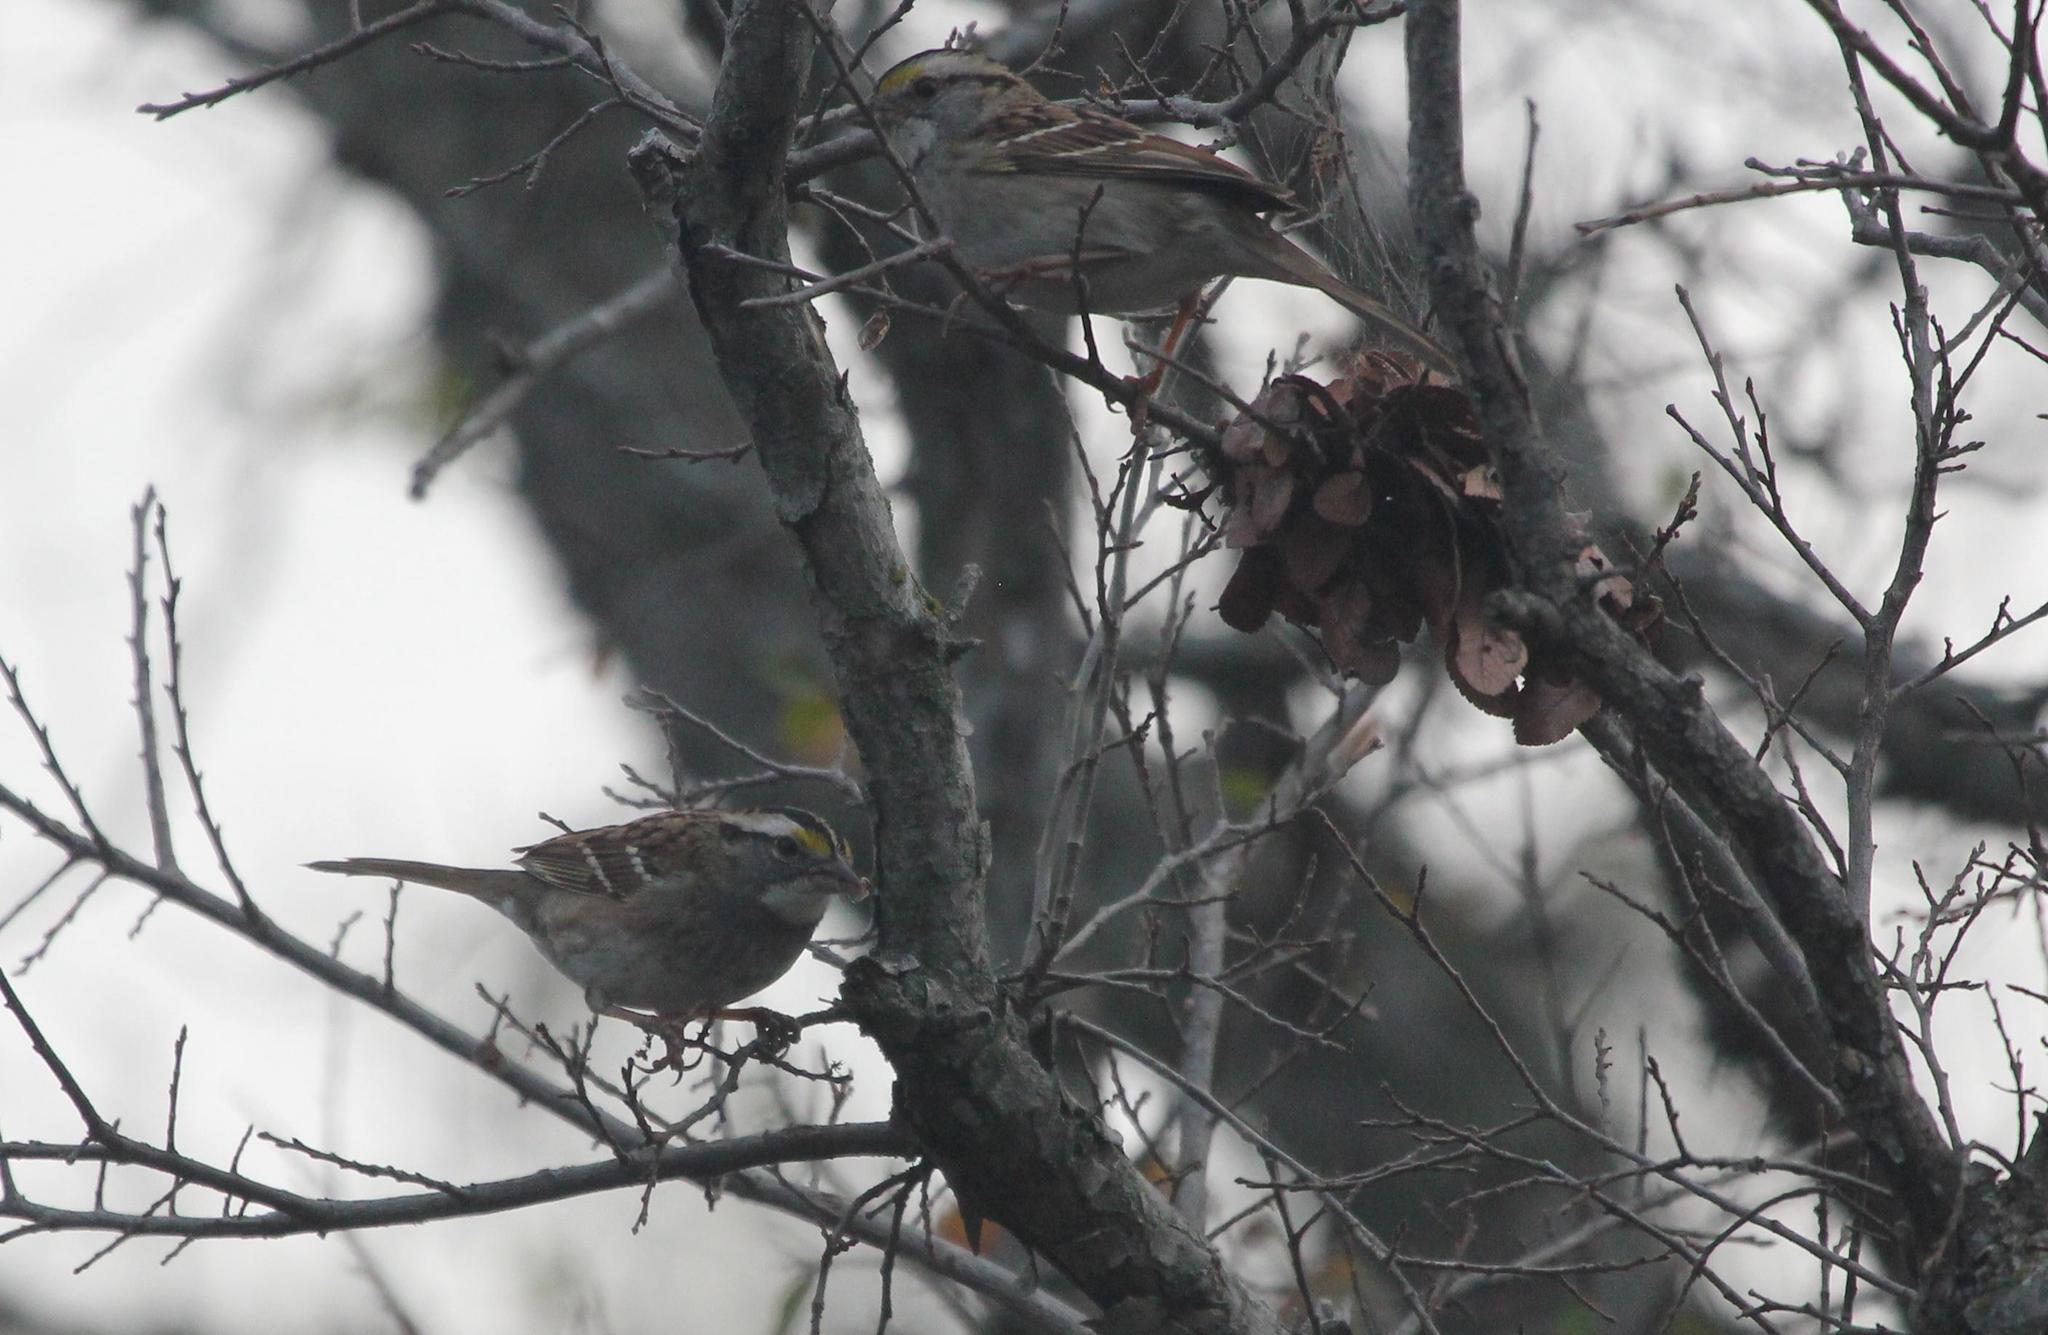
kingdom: Animalia
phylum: Chordata
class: Aves
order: Passeriformes
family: Passerellidae
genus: Zonotrichia
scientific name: Zonotrichia albicollis
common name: White-throated sparrow
